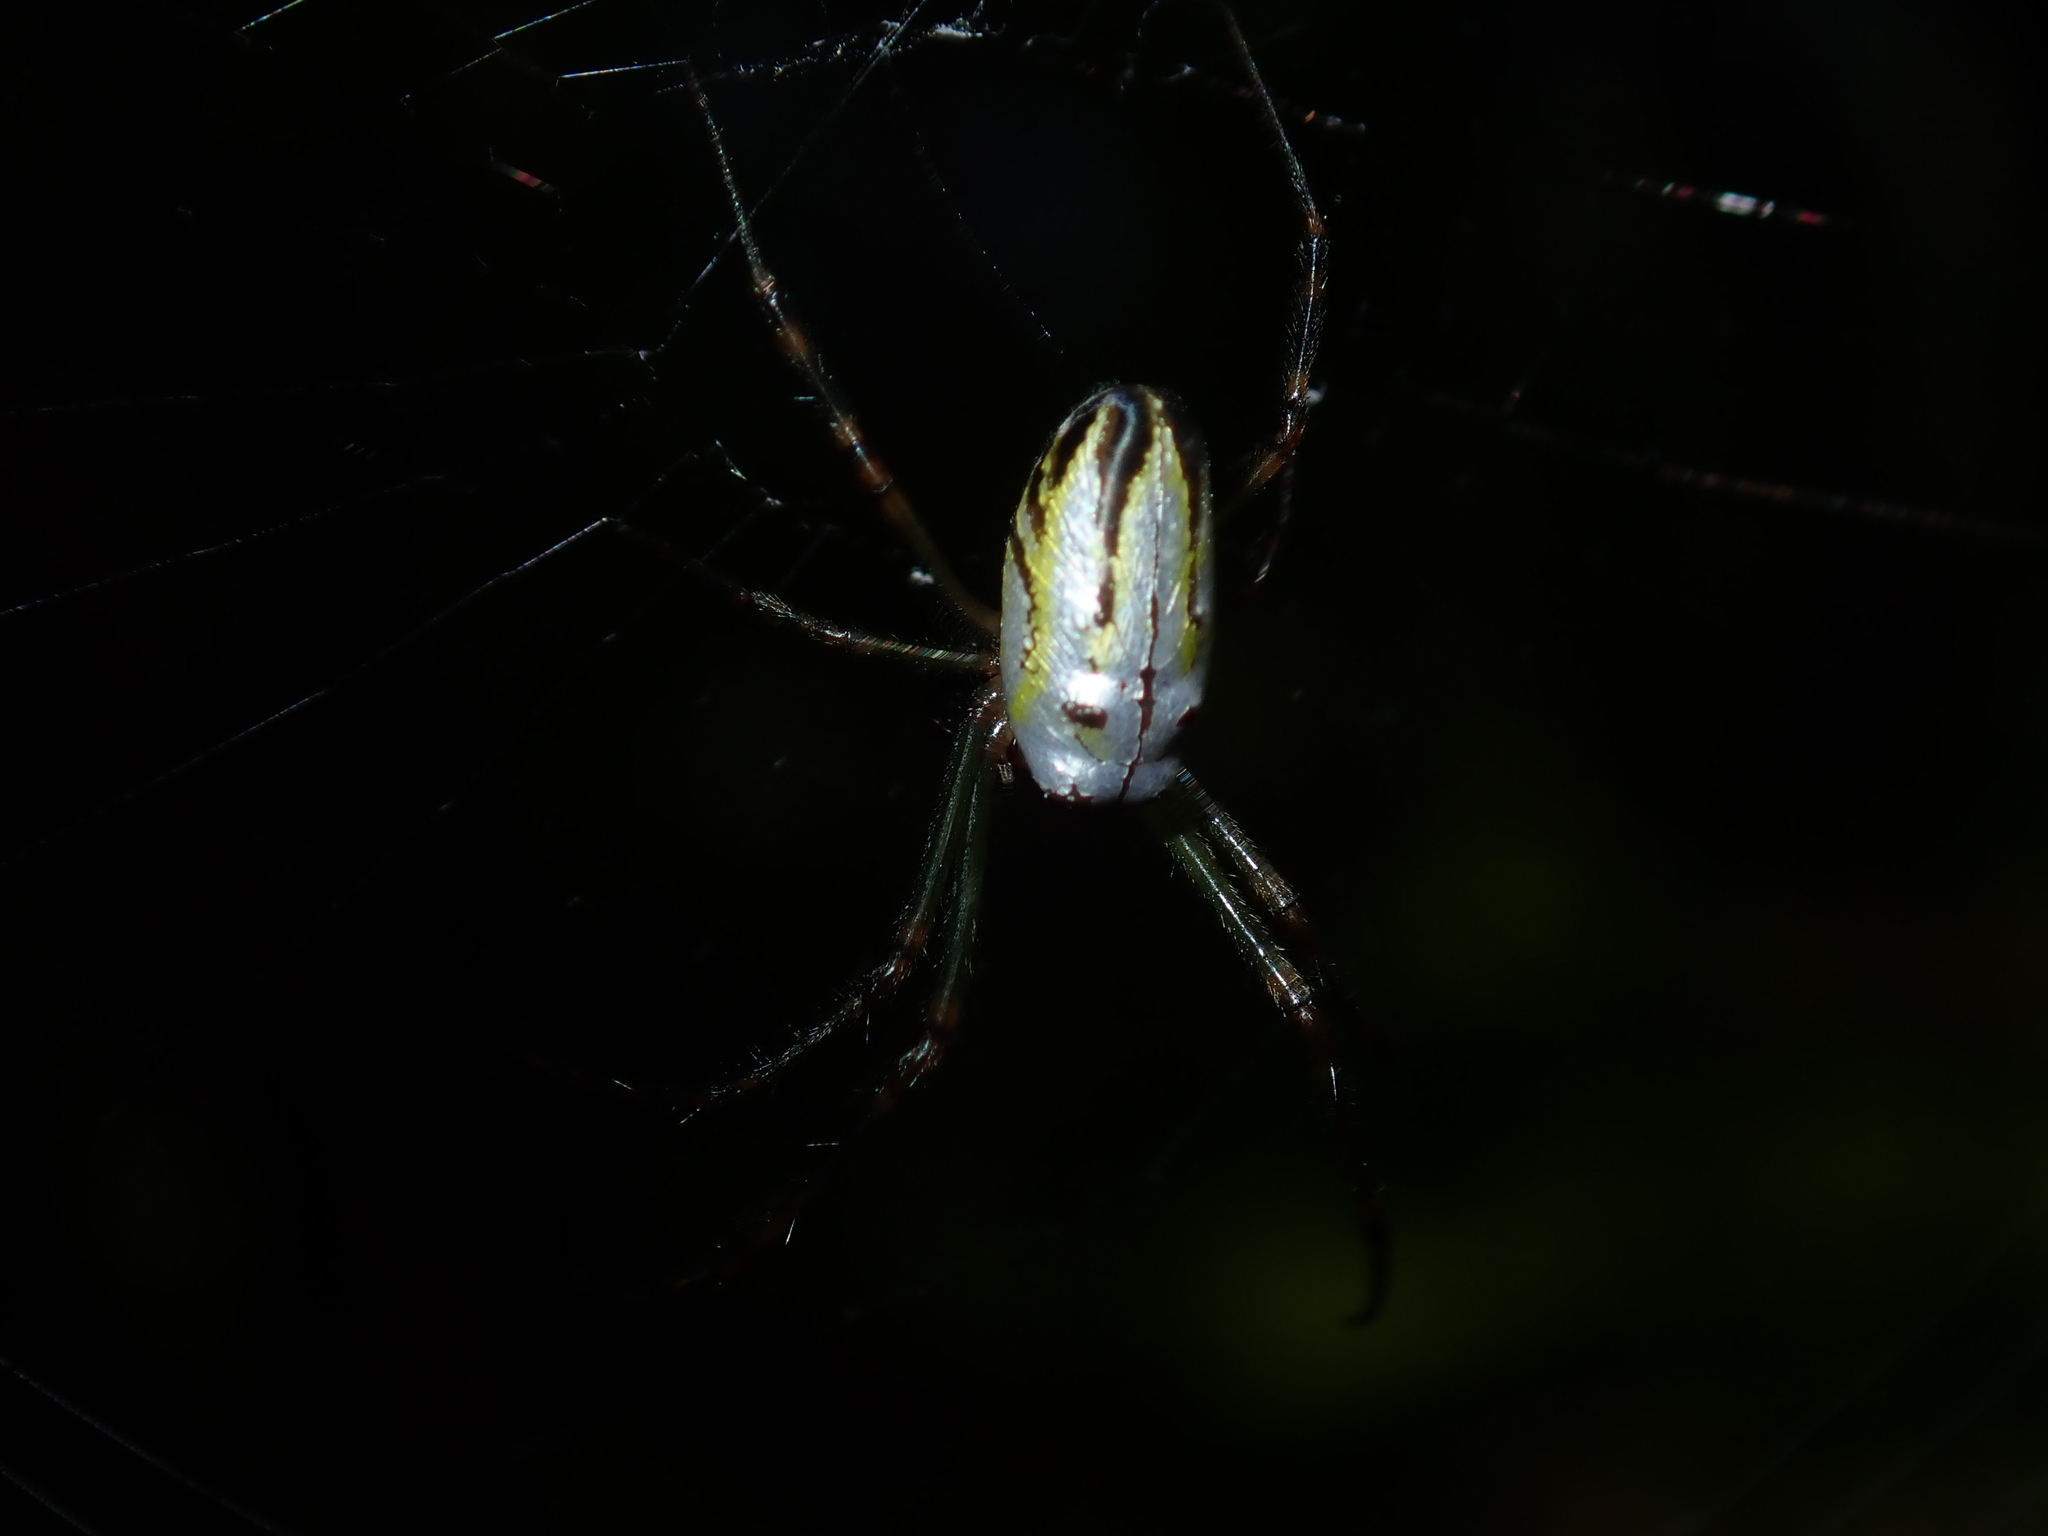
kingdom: Animalia
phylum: Arthropoda
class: Arachnida
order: Araneae
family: Tetragnathidae
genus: Leucauge
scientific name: Leucauge dromedaria
